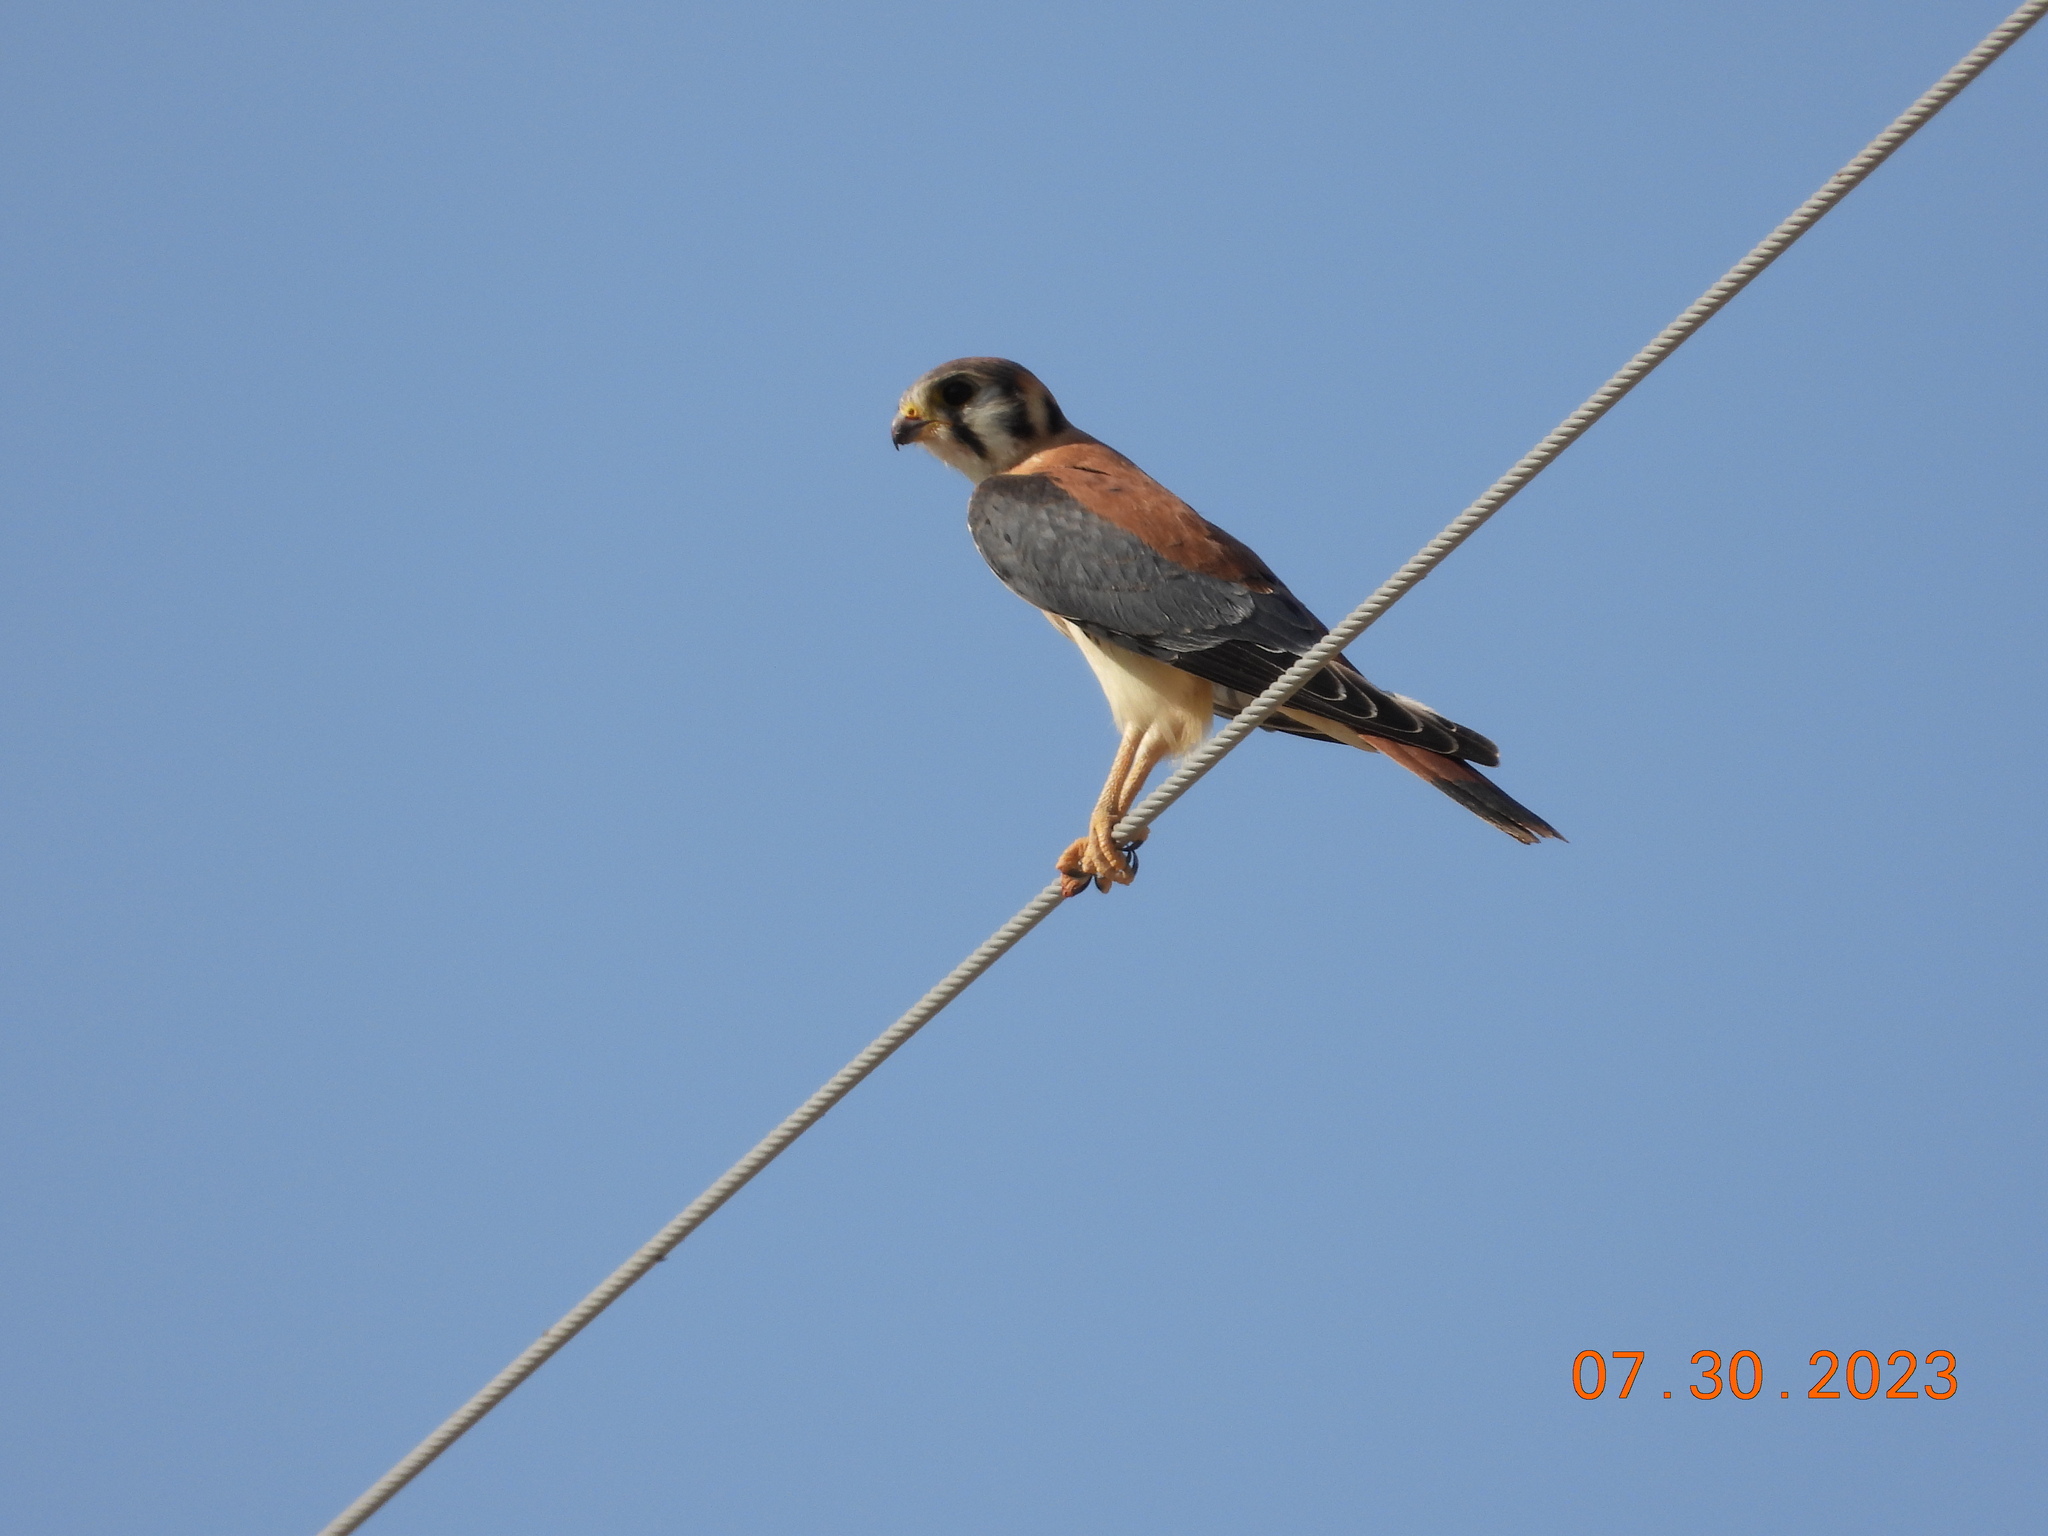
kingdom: Animalia
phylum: Chordata
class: Aves
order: Falconiformes
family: Falconidae
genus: Falco
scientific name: Falco sparverius
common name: American kestrel
